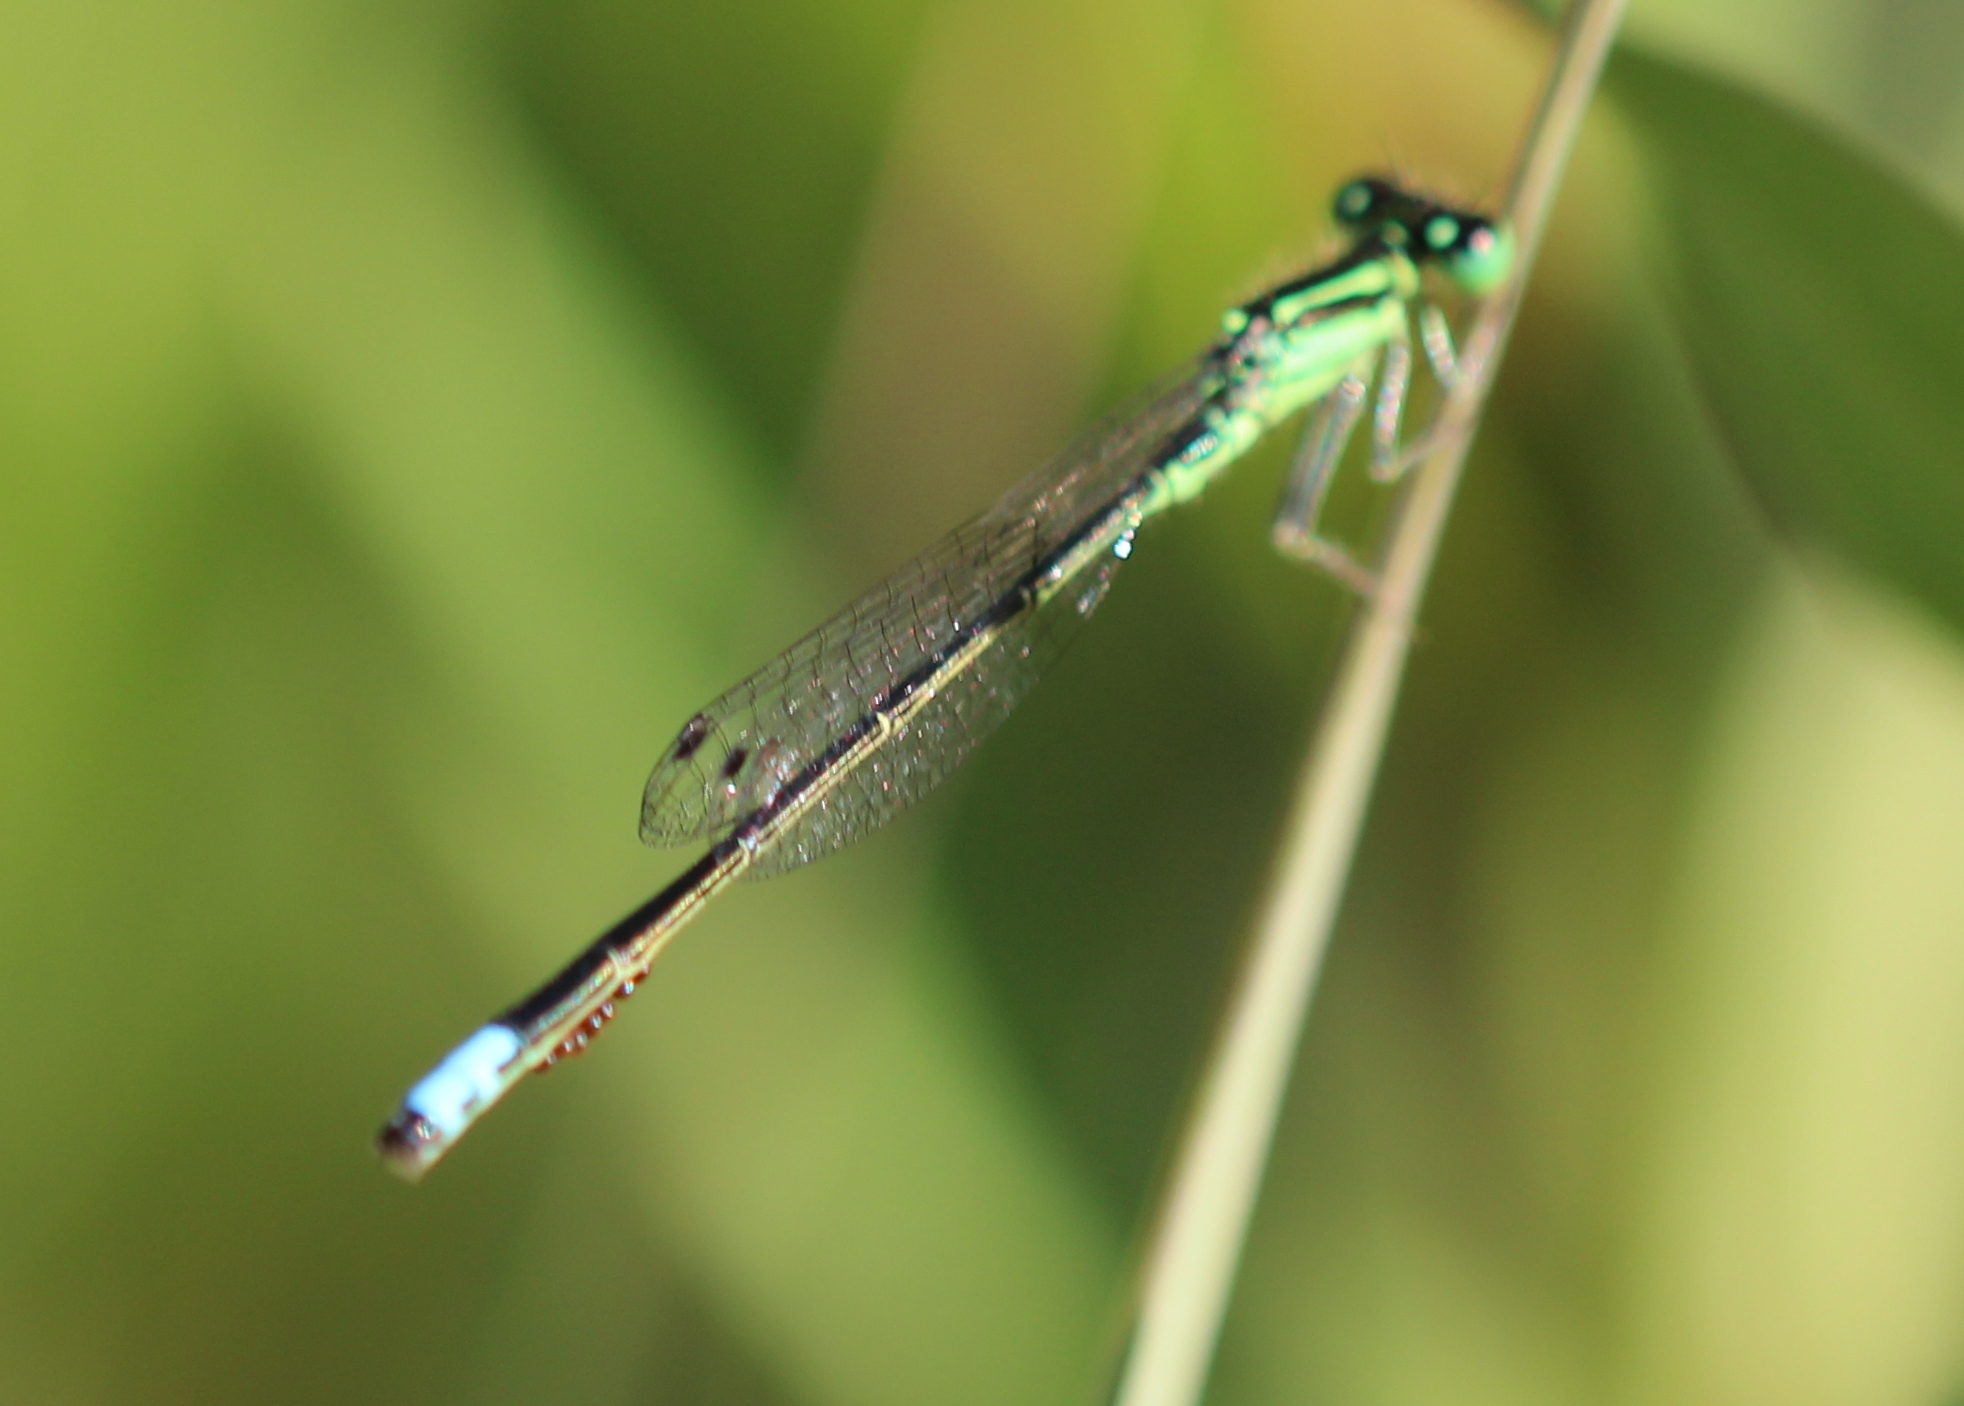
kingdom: Animalia
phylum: Arthropoda
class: Insecta
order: Odonata
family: Coenagrionidae
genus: Ischnura
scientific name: Ischnura verticalis
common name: Eastern forktail
